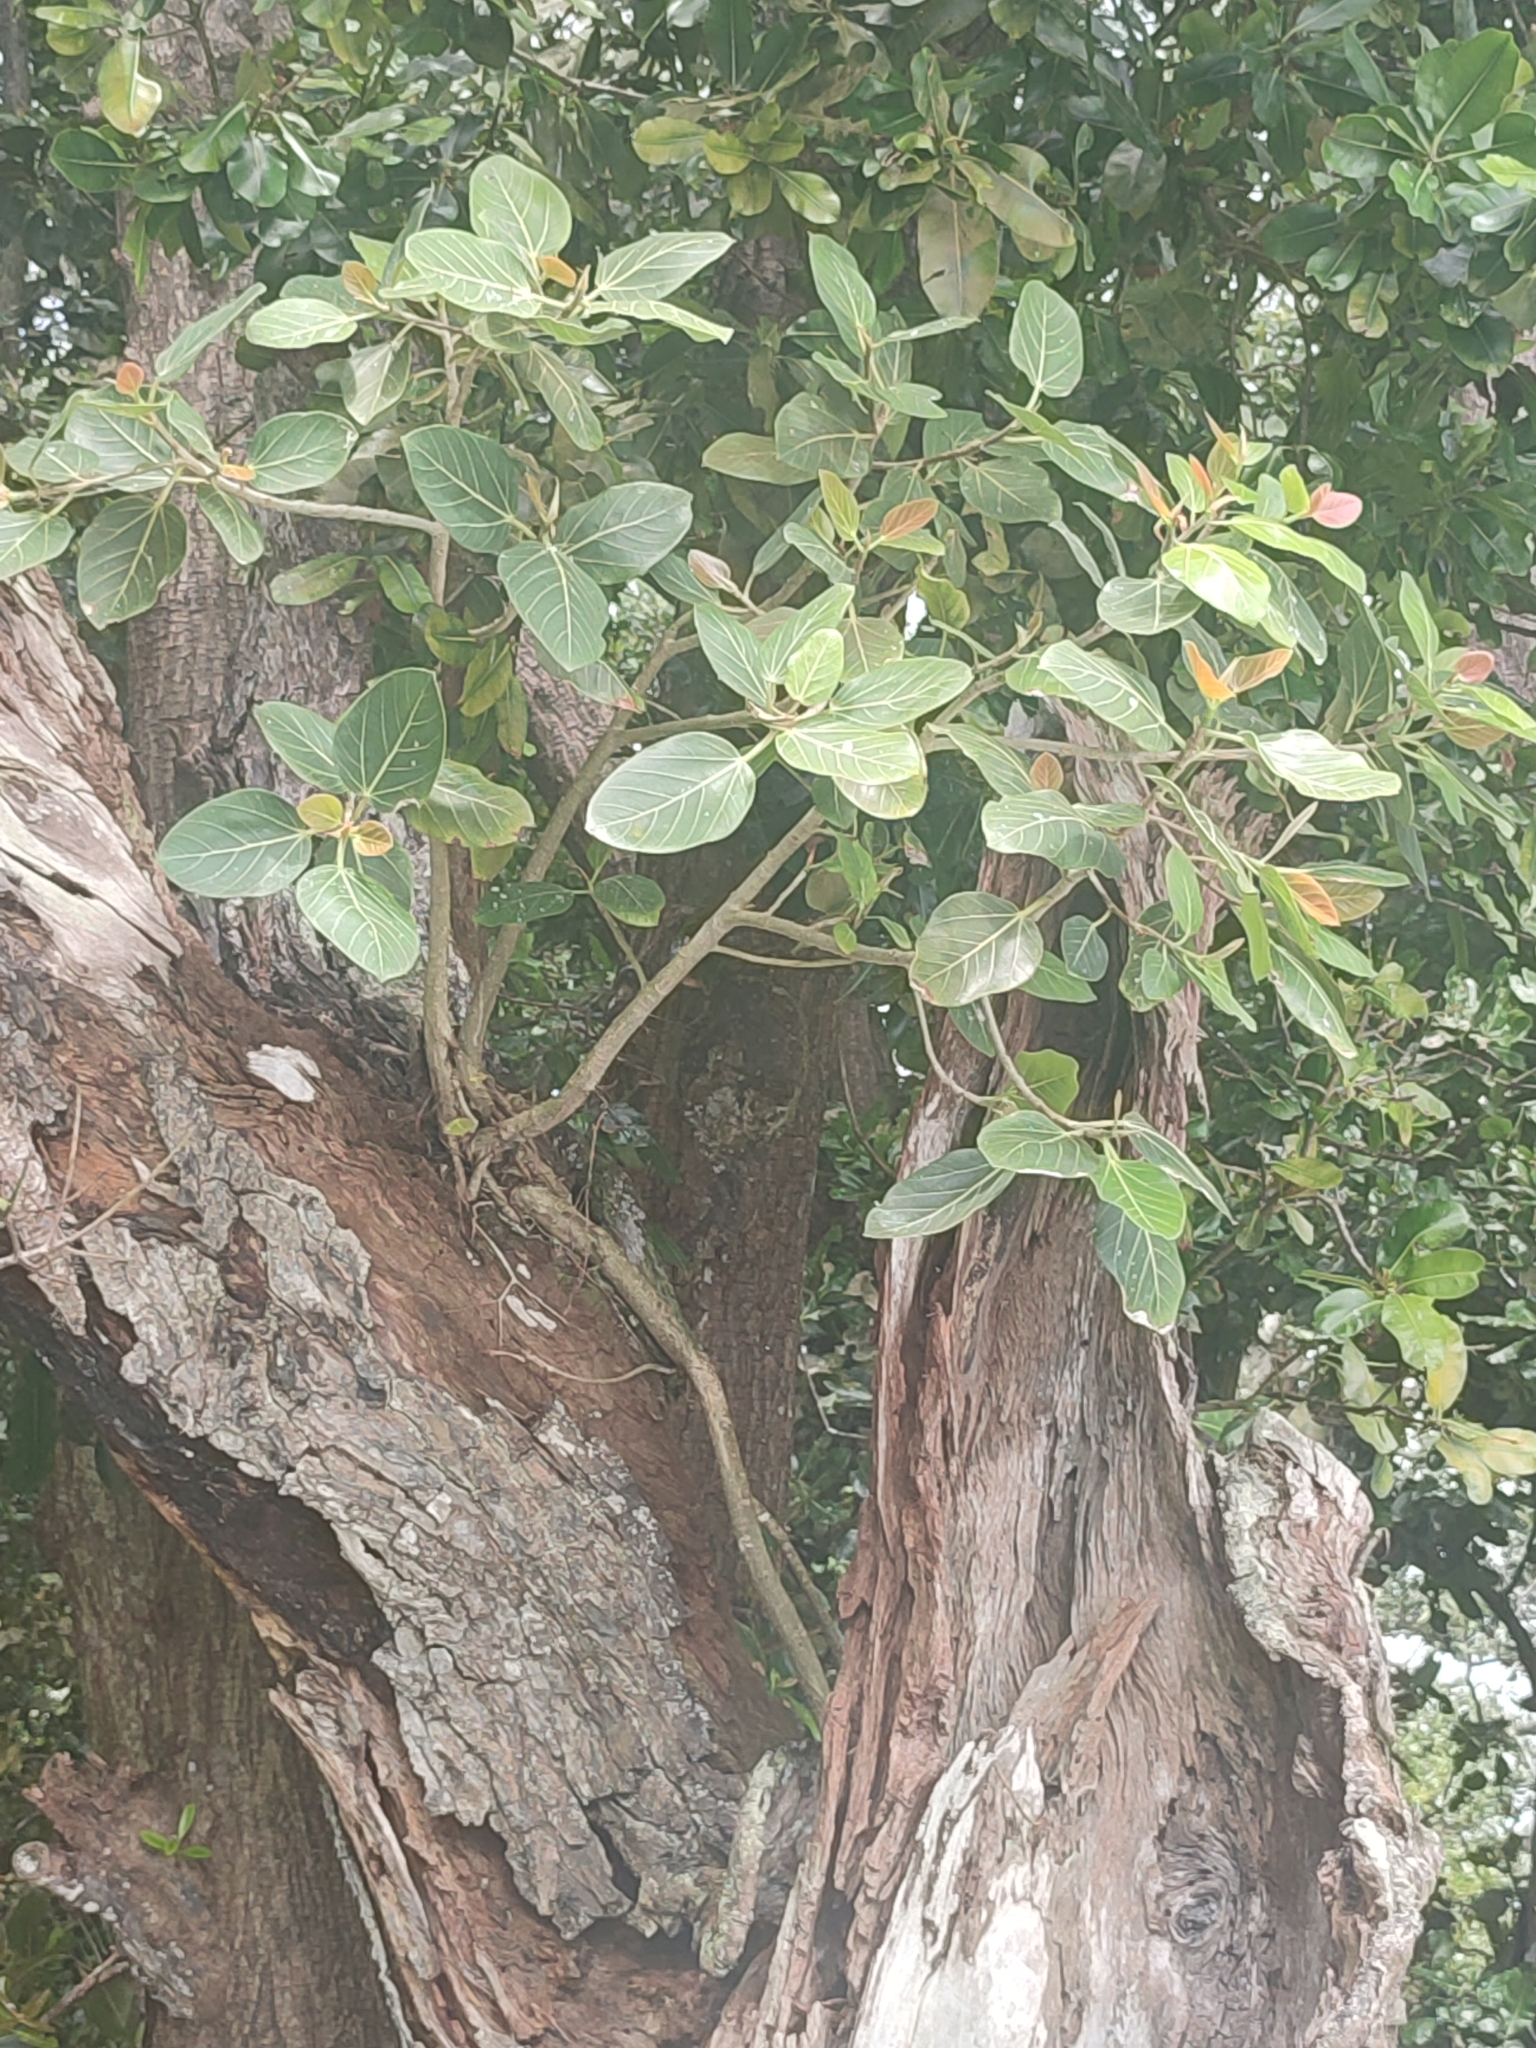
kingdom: Plantae
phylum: Tracheophyta
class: Magnoliopsida
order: Rosales
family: Moraceae
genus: Ficus
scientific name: Ficus benghalensis
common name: Indian banyan
